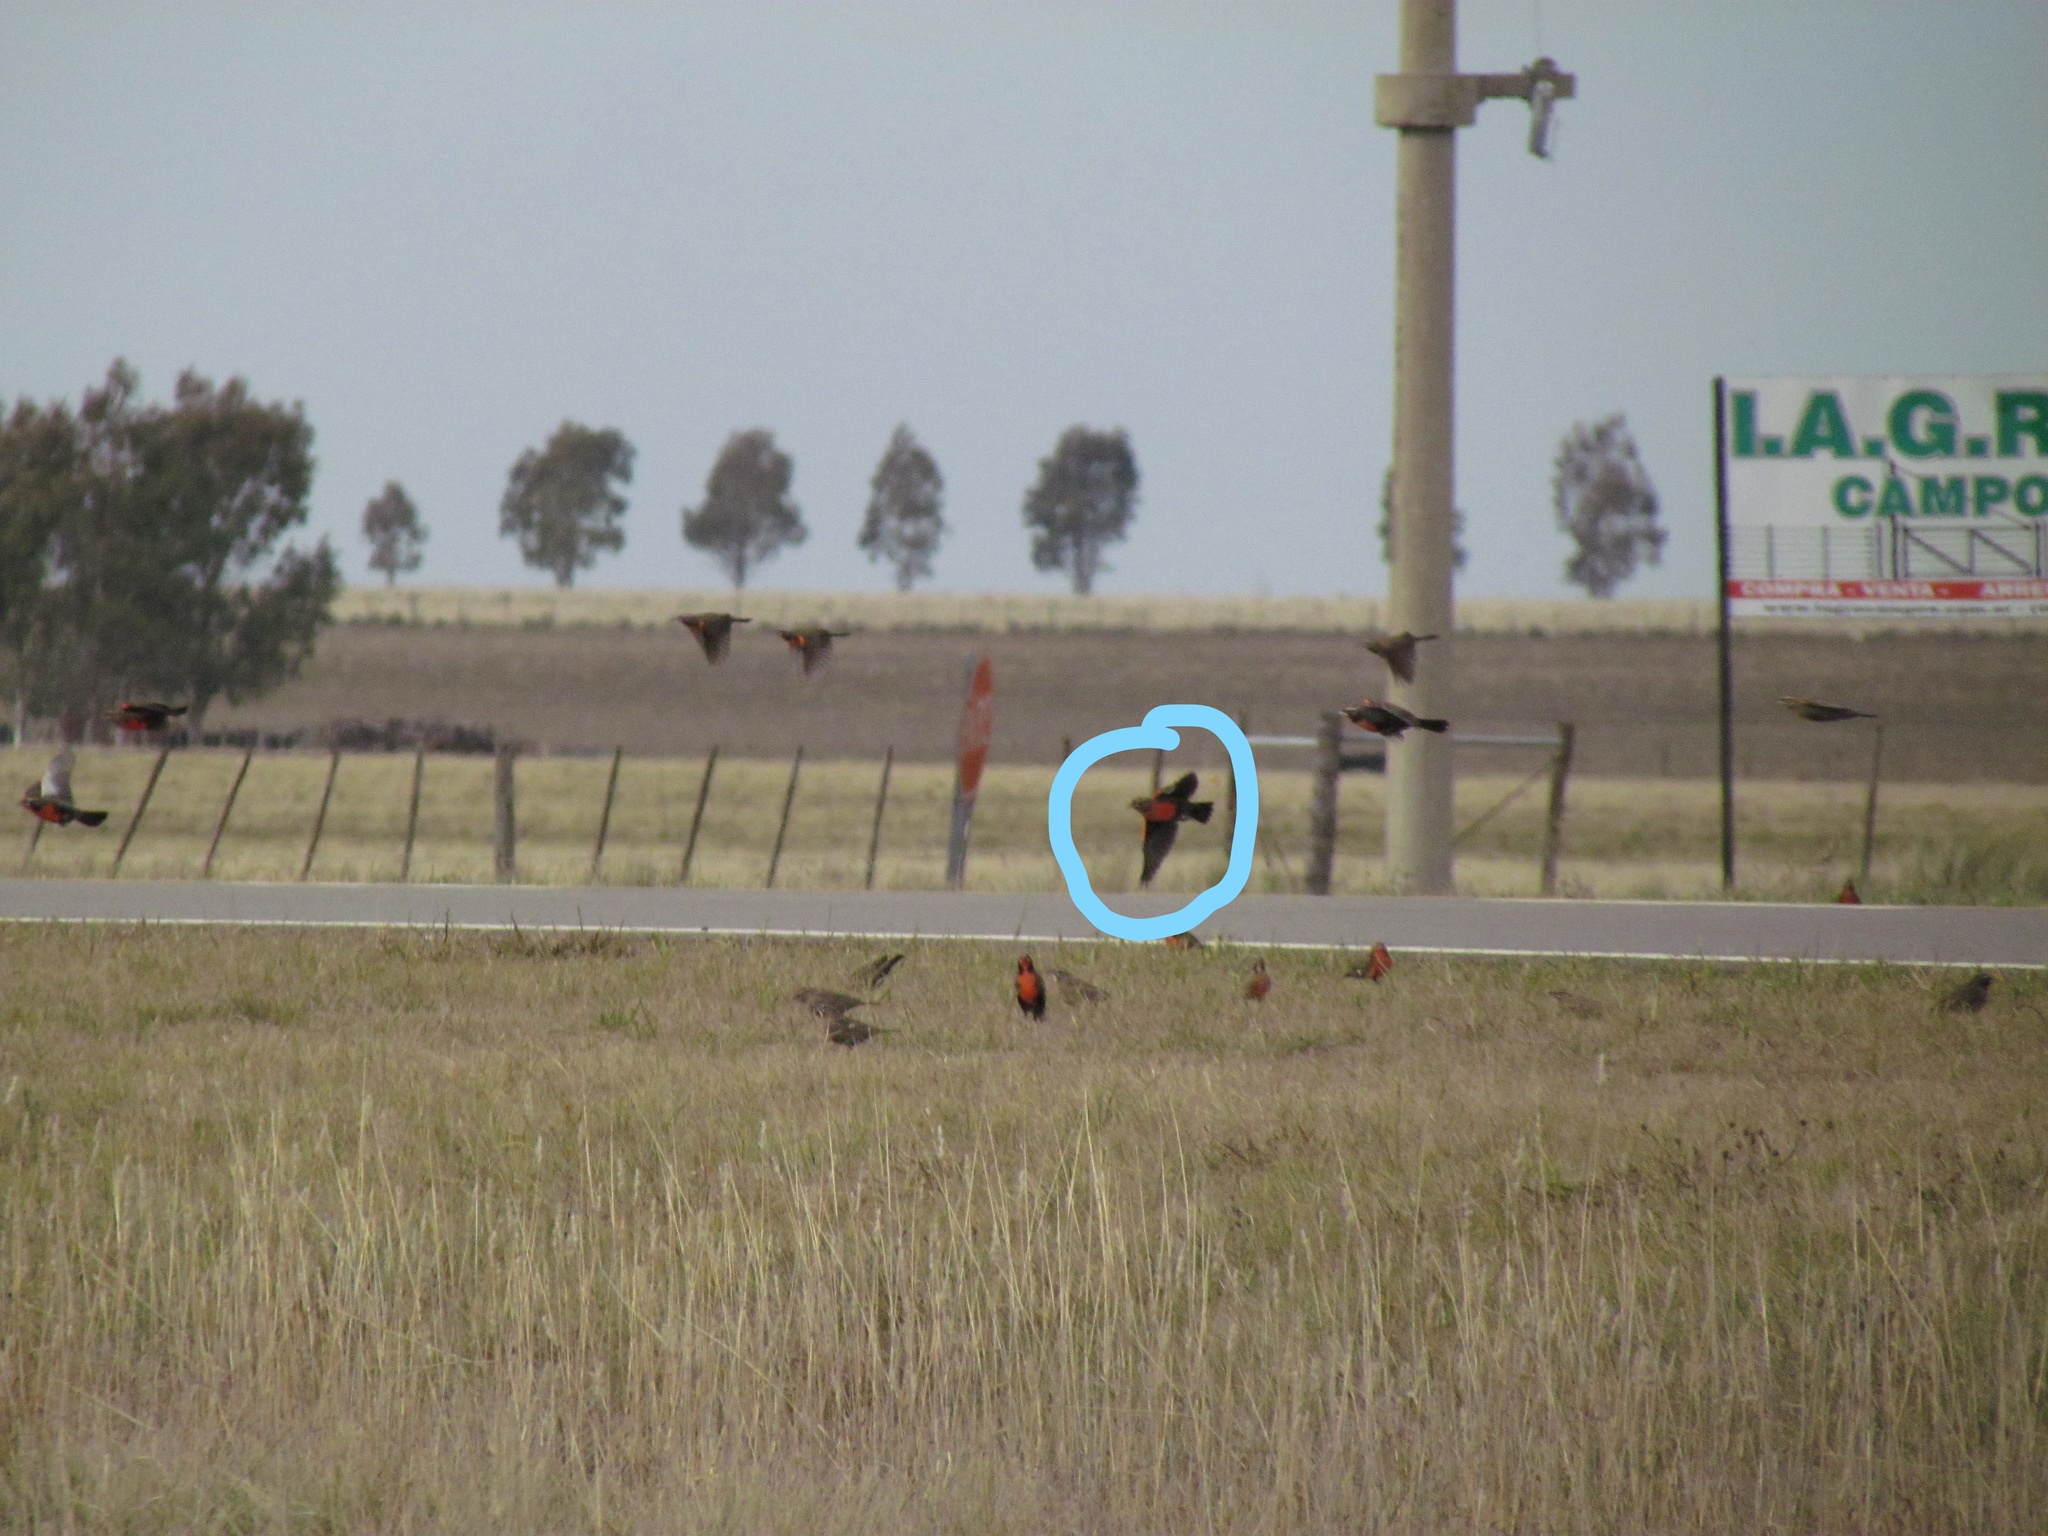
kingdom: Animalia
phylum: Chordata
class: Aves
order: Passeriformes
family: Icteridae
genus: Sturnella
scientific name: Sturnella defilippii
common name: Pampas meadowlark
